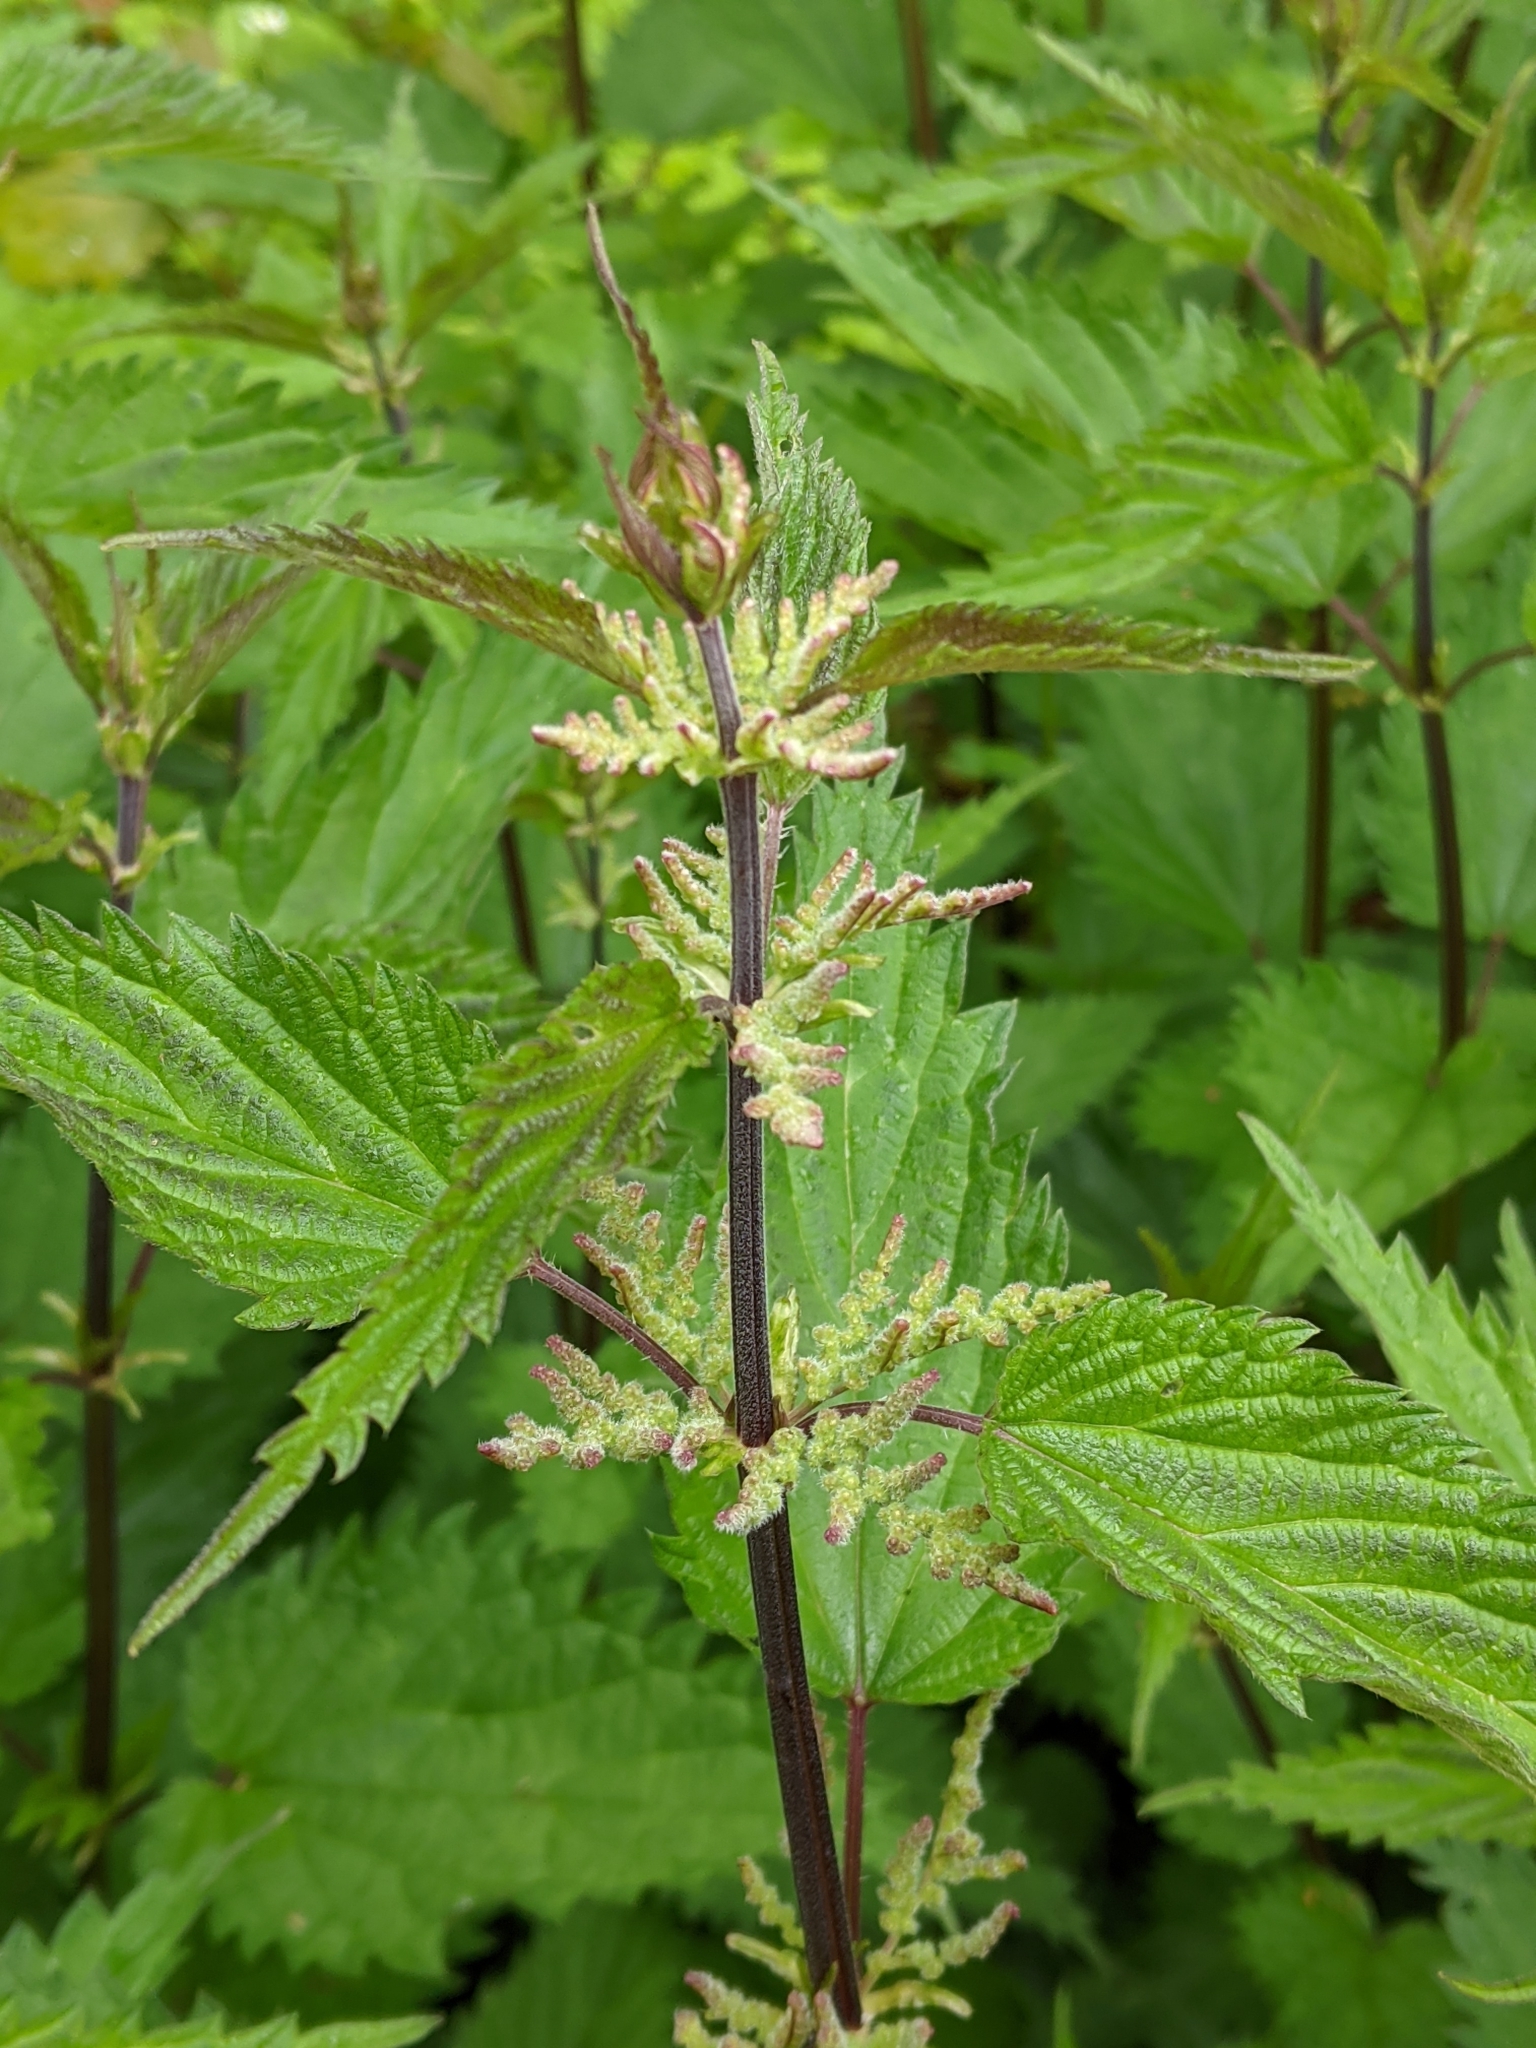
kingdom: Plantae
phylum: Tracheophyta
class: Magnoliopsida
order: Rosales
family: Urticaceae
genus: Urtica
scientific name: Urtica dioica
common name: Common nettle
